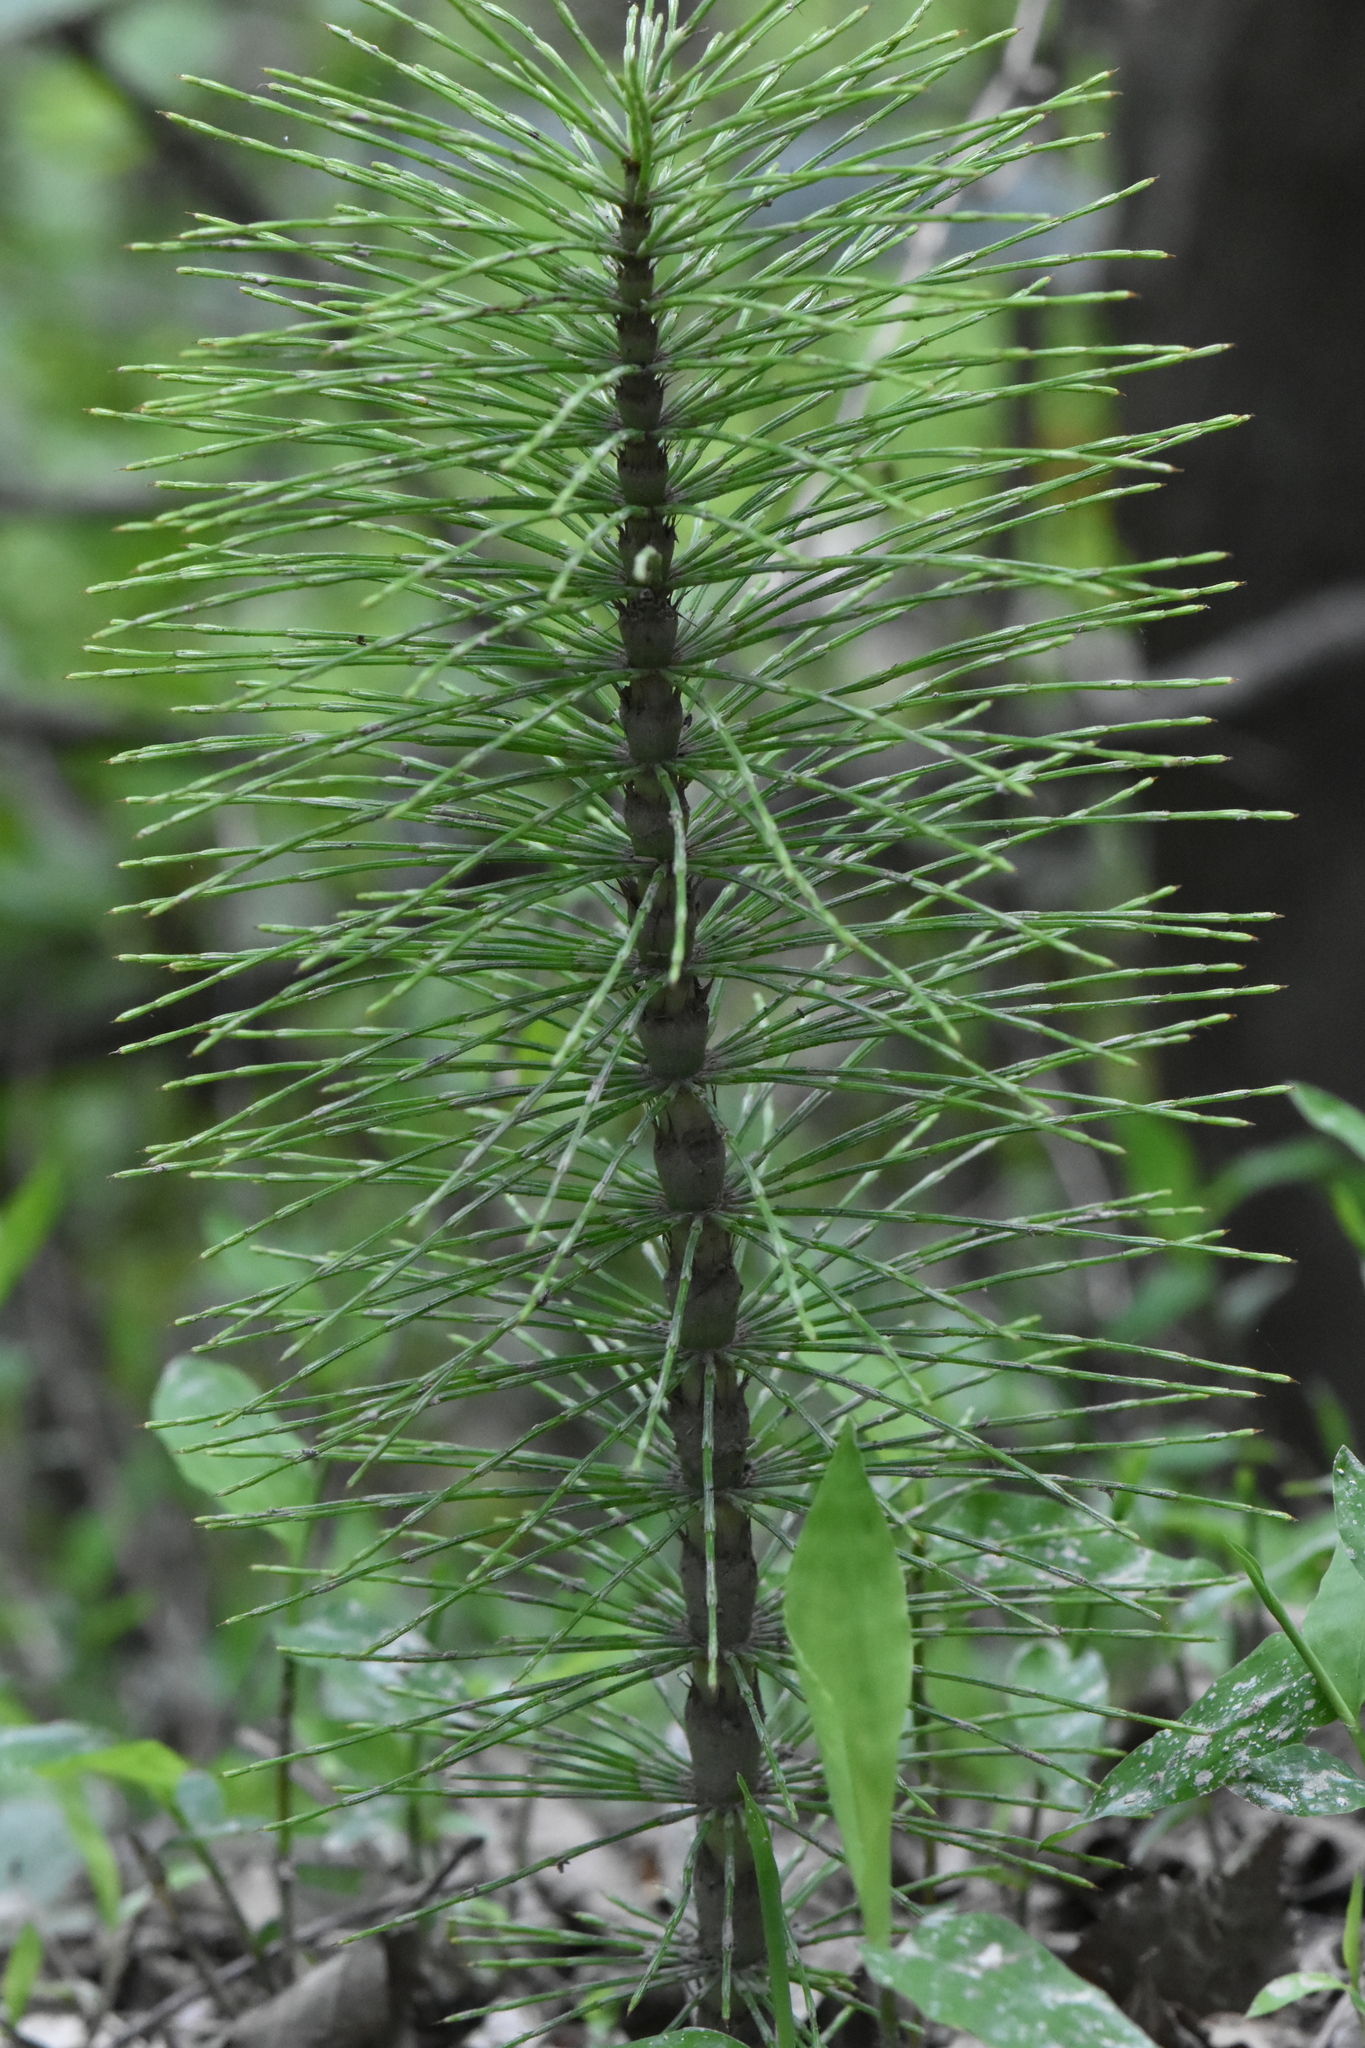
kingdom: Plantae
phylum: Tracheophyta
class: Polypodiopsida
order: Equisetales
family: Equisetaceae
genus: Equisetum
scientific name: Equisetum telmateia
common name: Great horsetail
